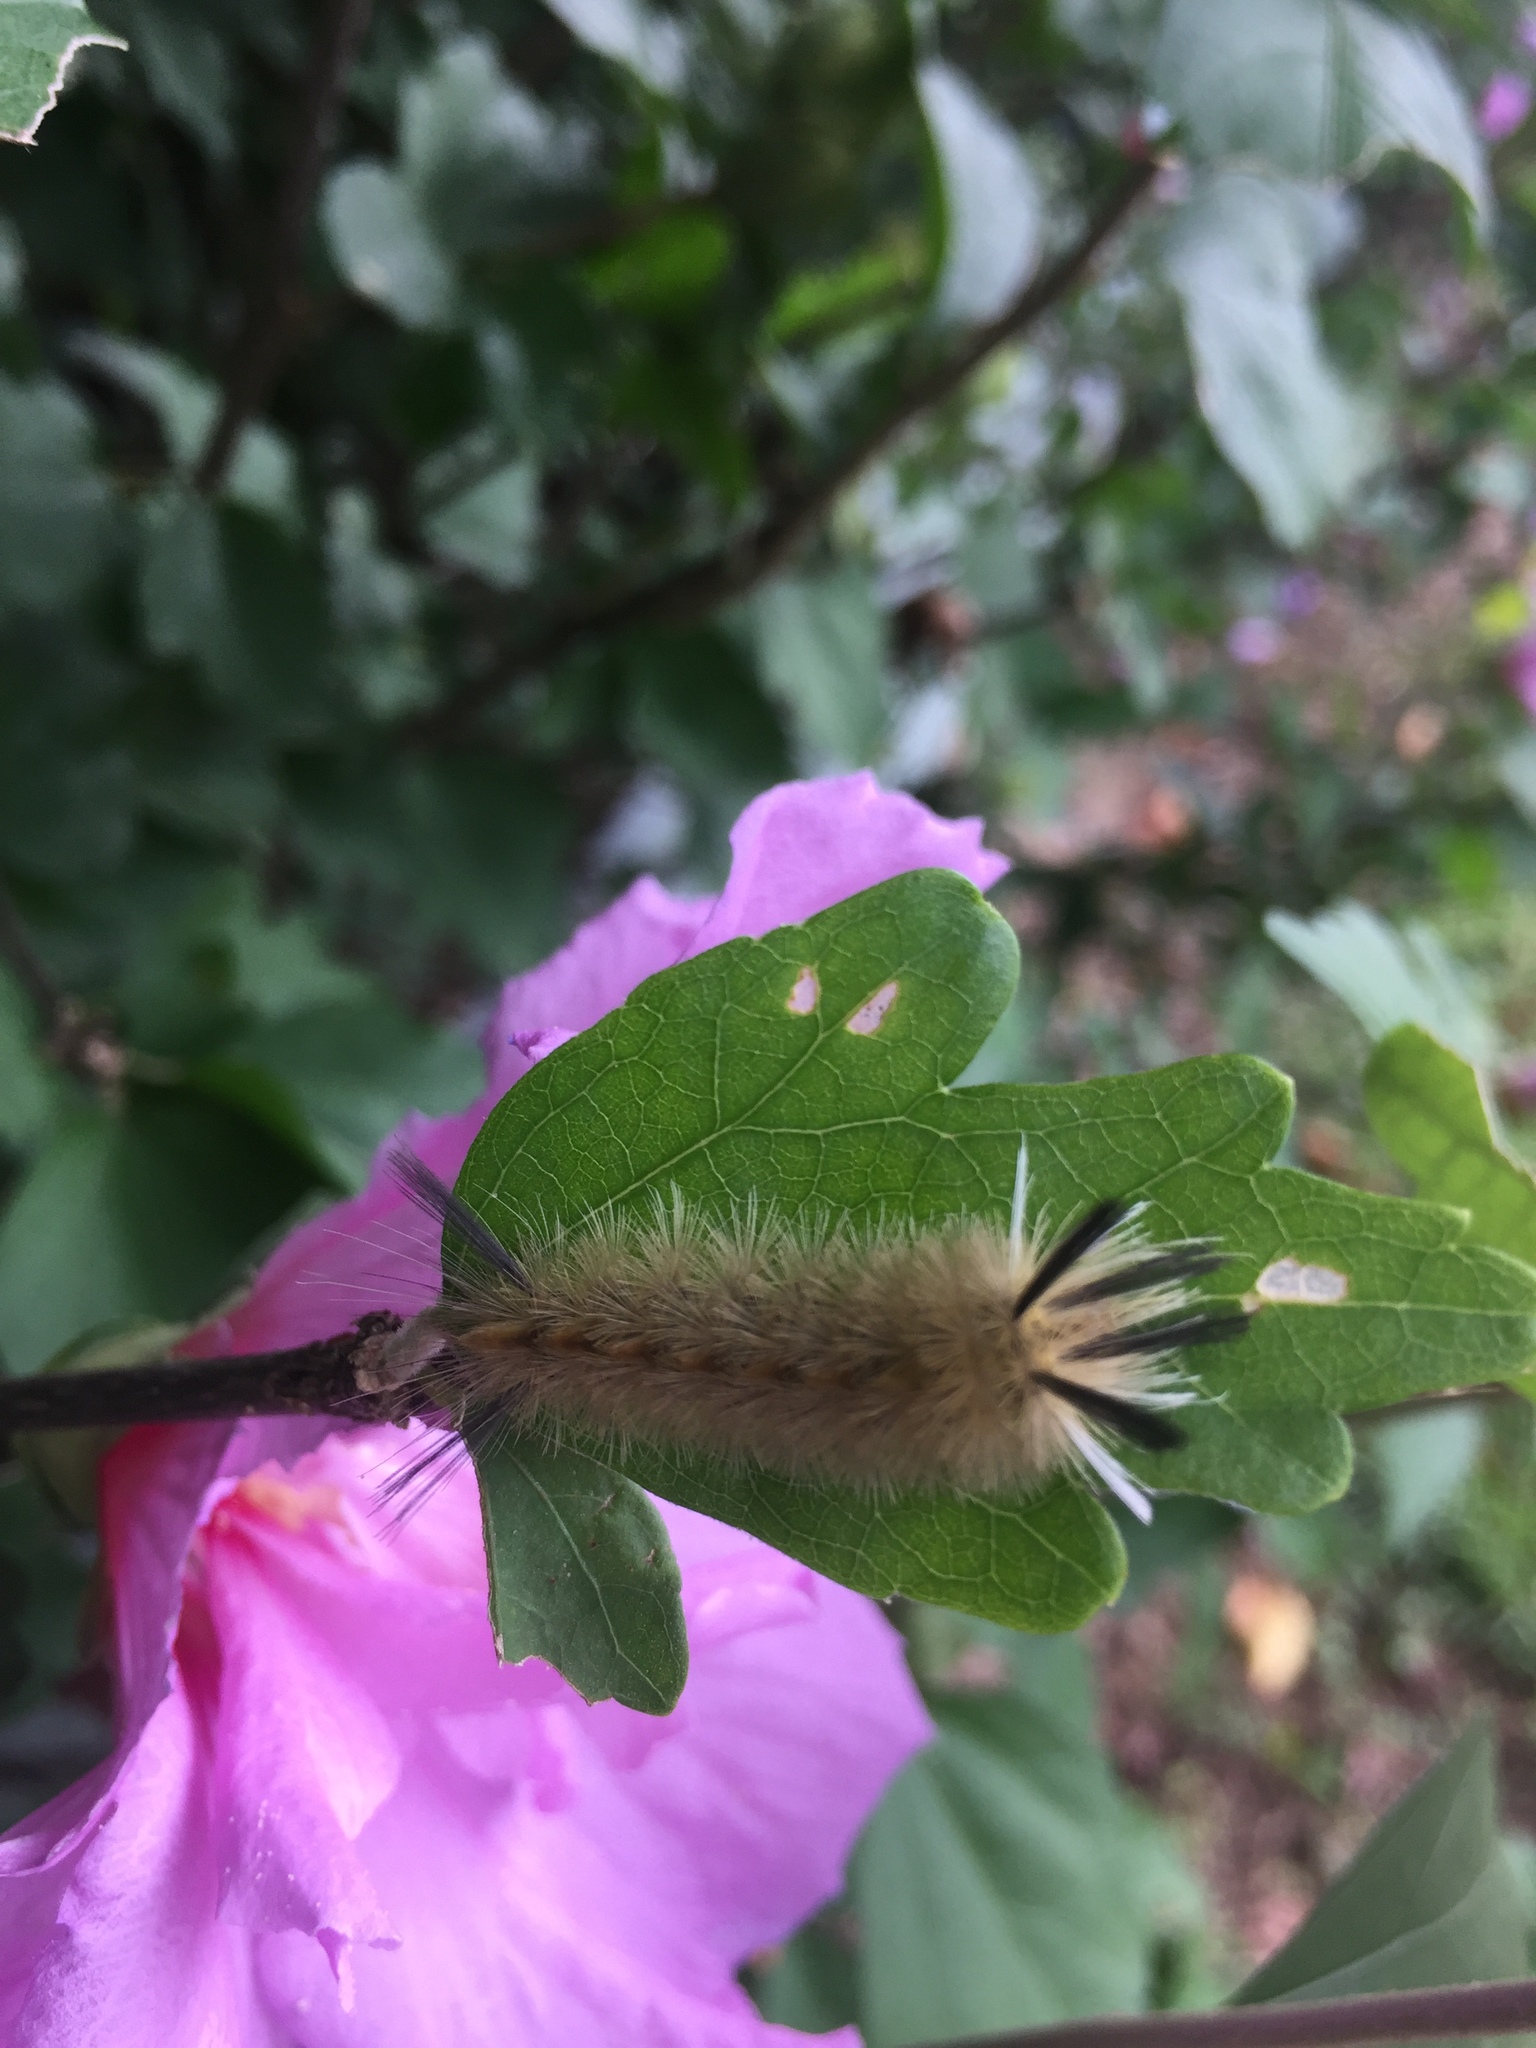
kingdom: Animalia
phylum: Arthropoda
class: Insecta
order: Lepidoptera
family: Erebidae
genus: Halysidota
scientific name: Halysidota tessellaris
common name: Banded tussock moth
